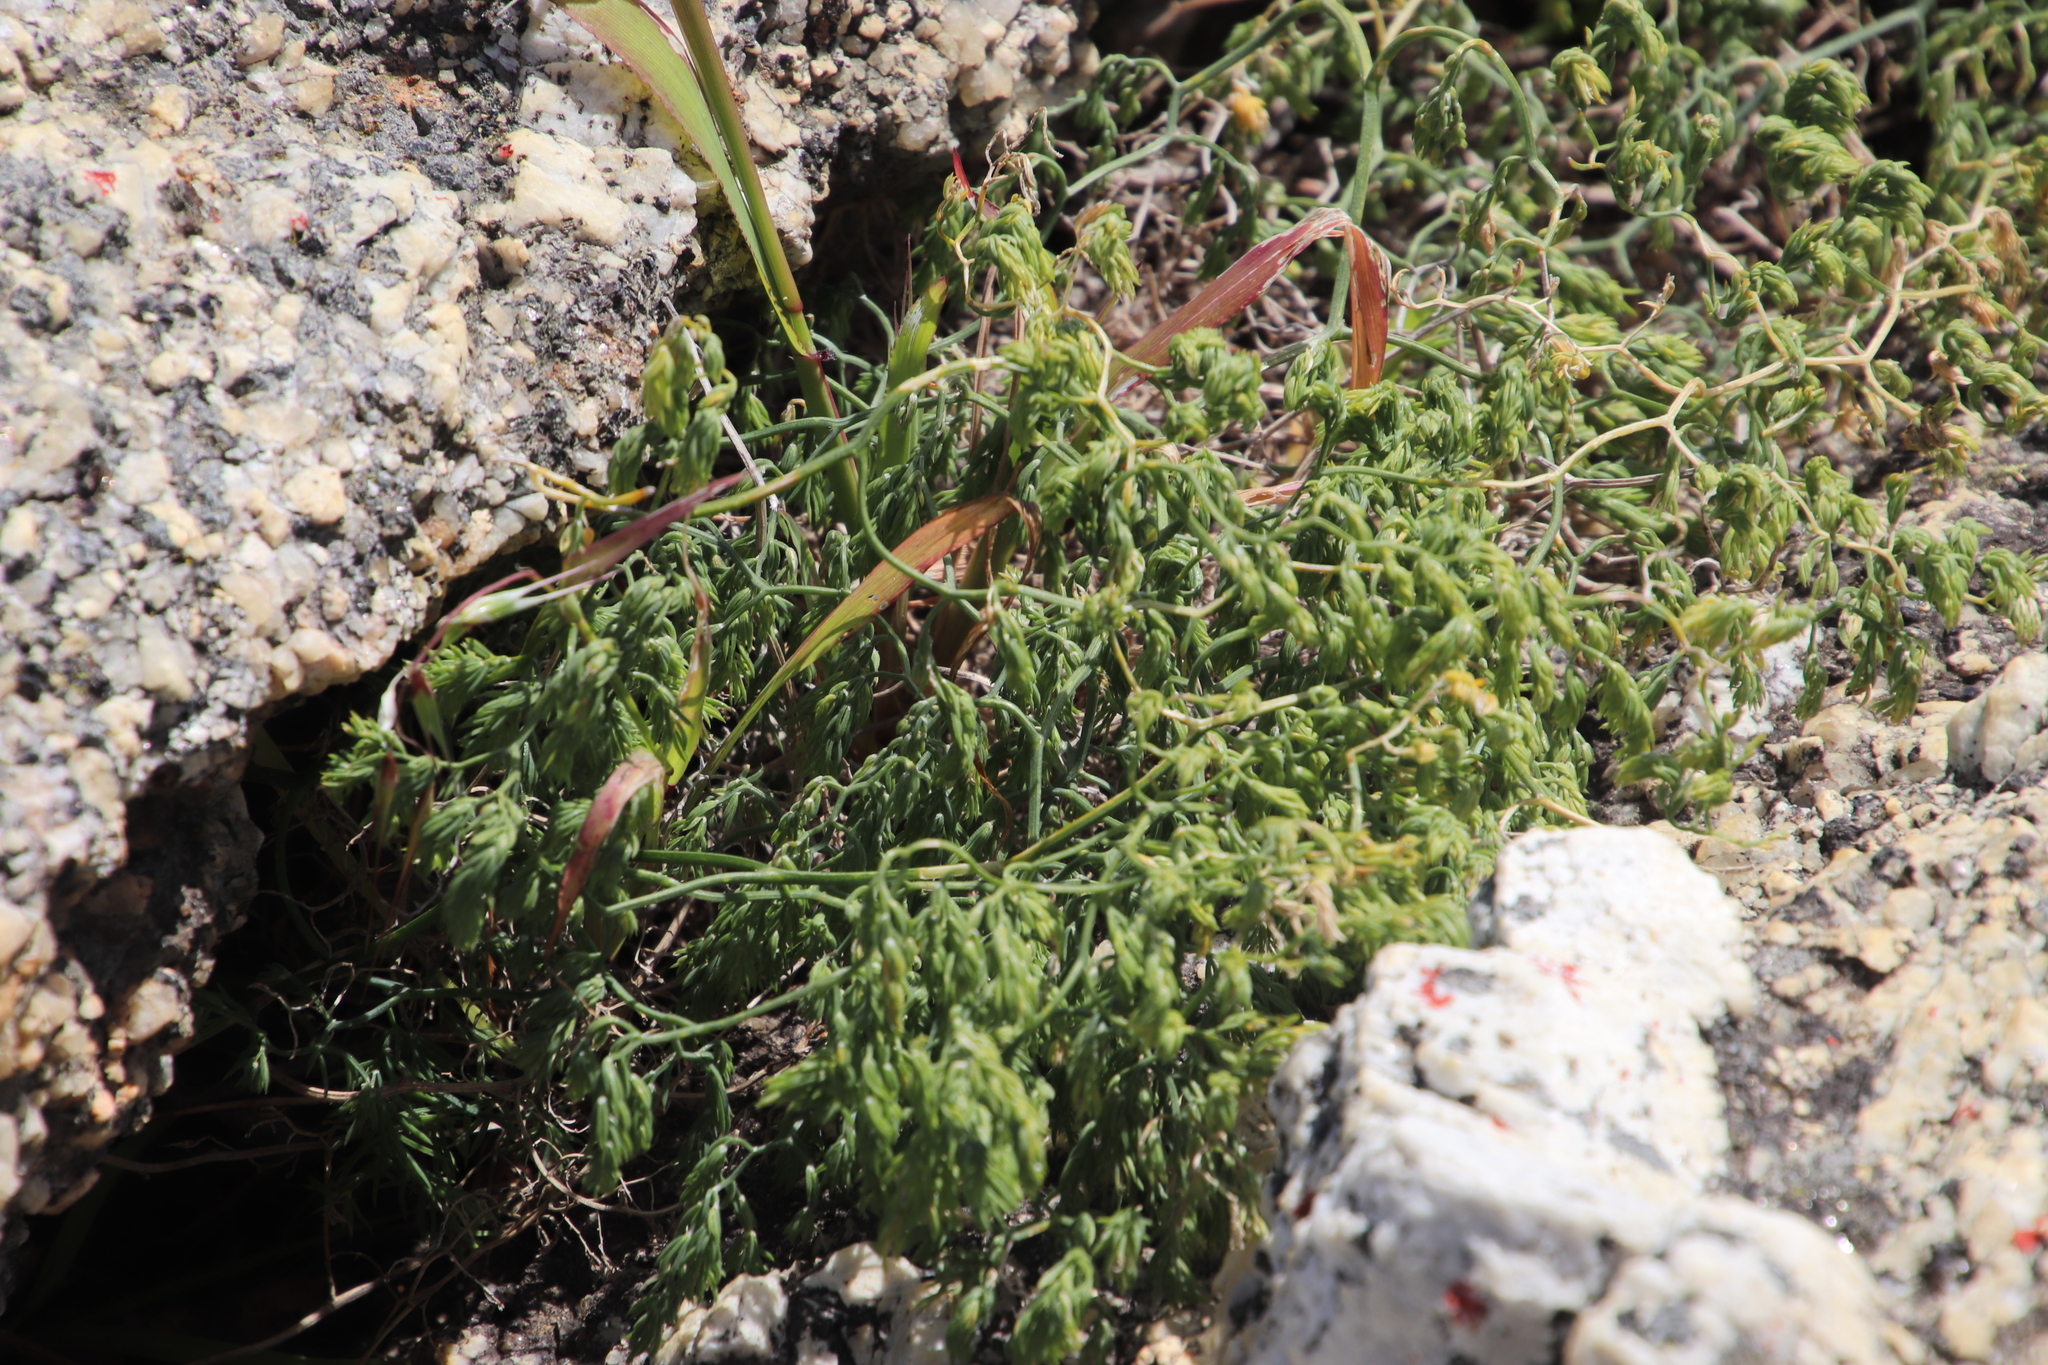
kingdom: Plantae
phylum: Tracheophyta
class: Liliopsida
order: Asparagales
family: Asparagaceae
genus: Asparagus
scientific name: Asparagus declinatus
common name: Bridal-creeper
